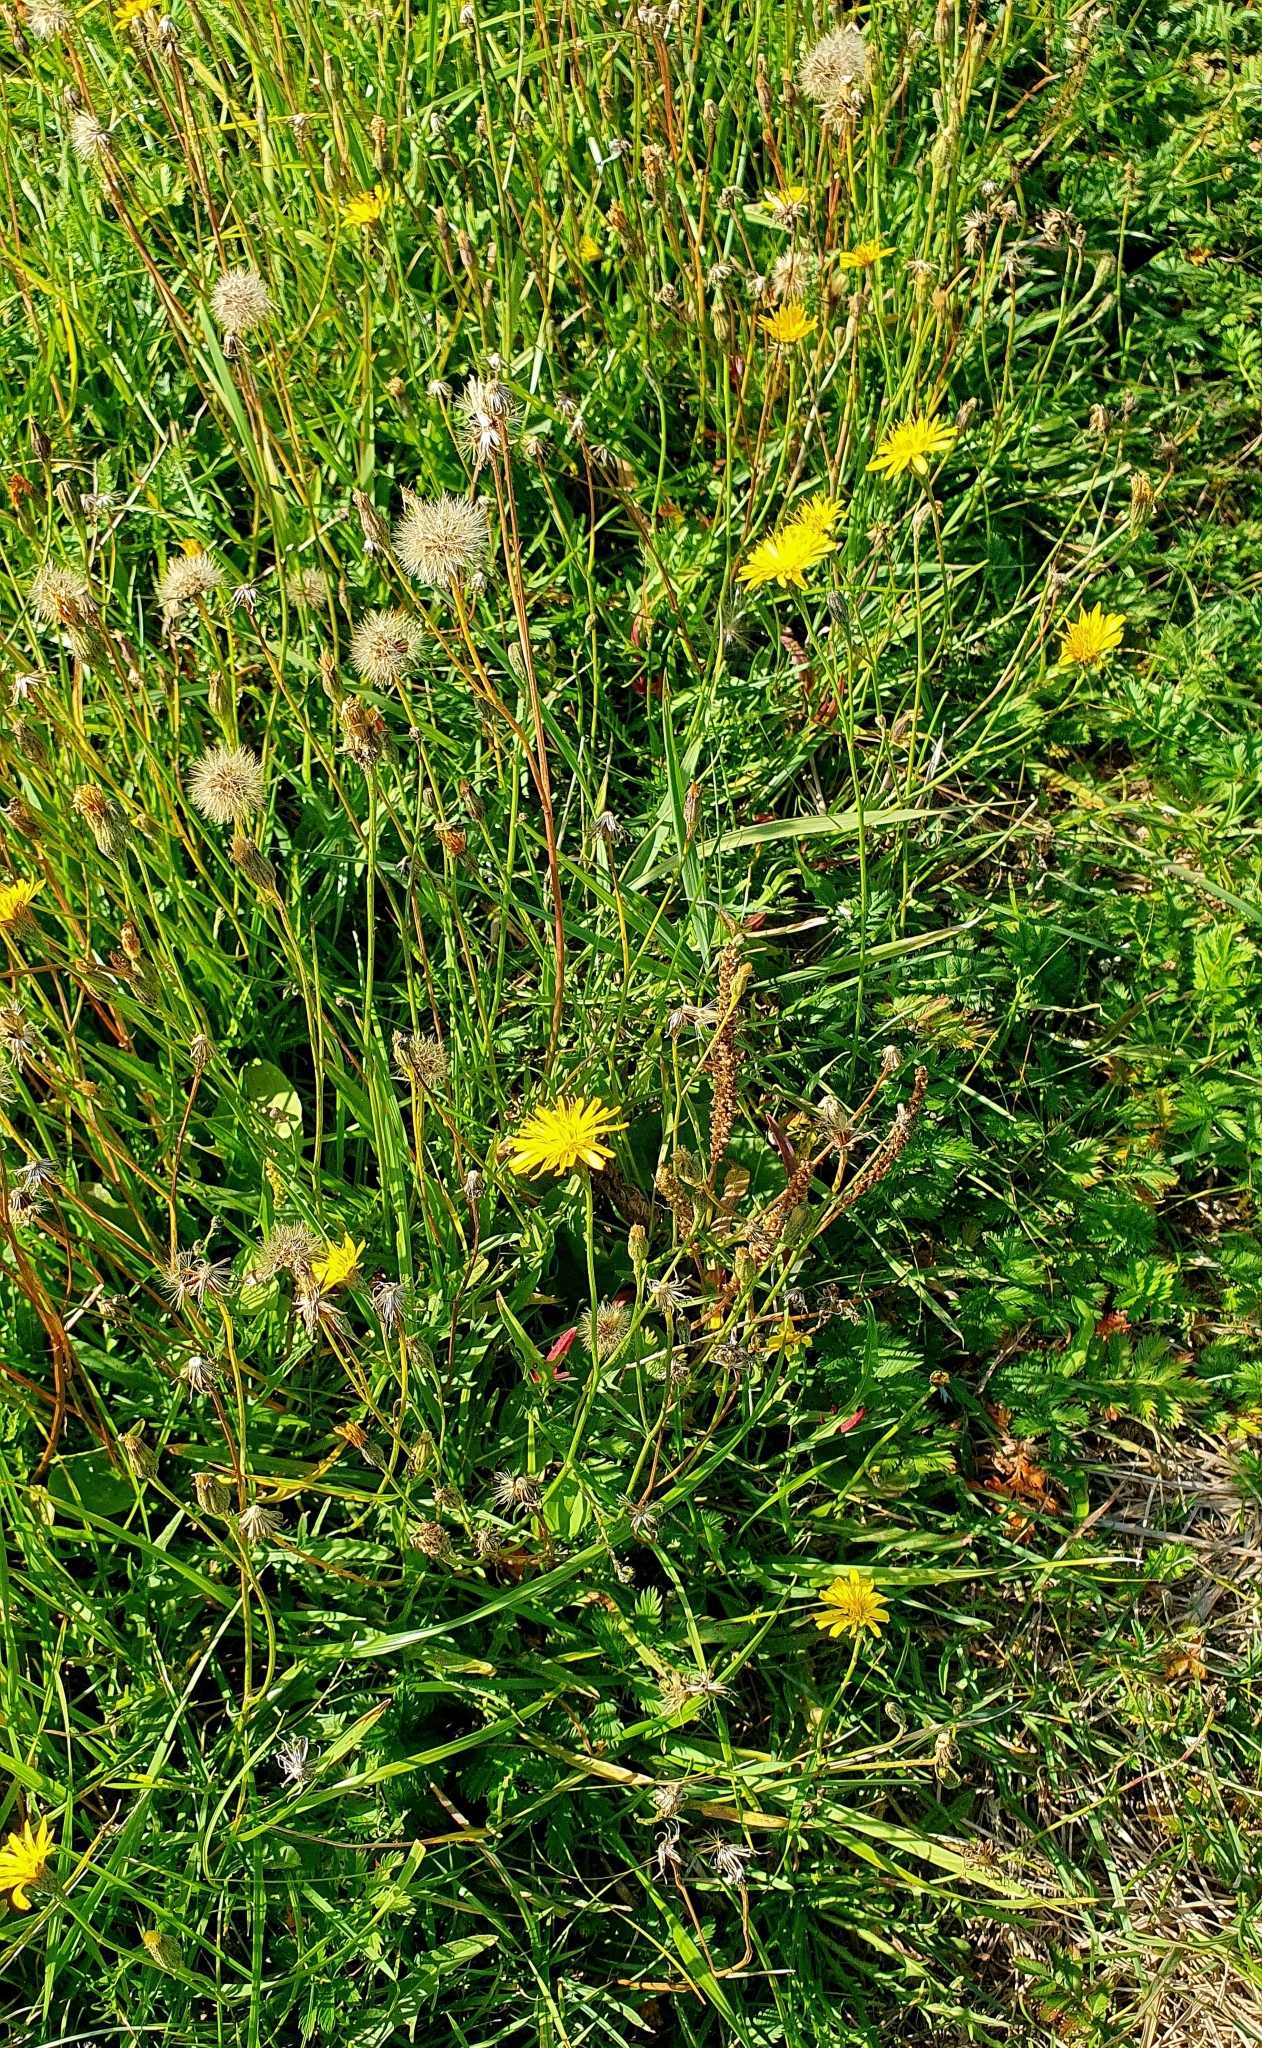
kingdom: Plantae
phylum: Tracheophyta
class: Magnoliopsida
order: Asterales
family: Asteraceae
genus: Scorzoneroides
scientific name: Scorzoneroides autumnalis
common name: Autumn hawkbit
